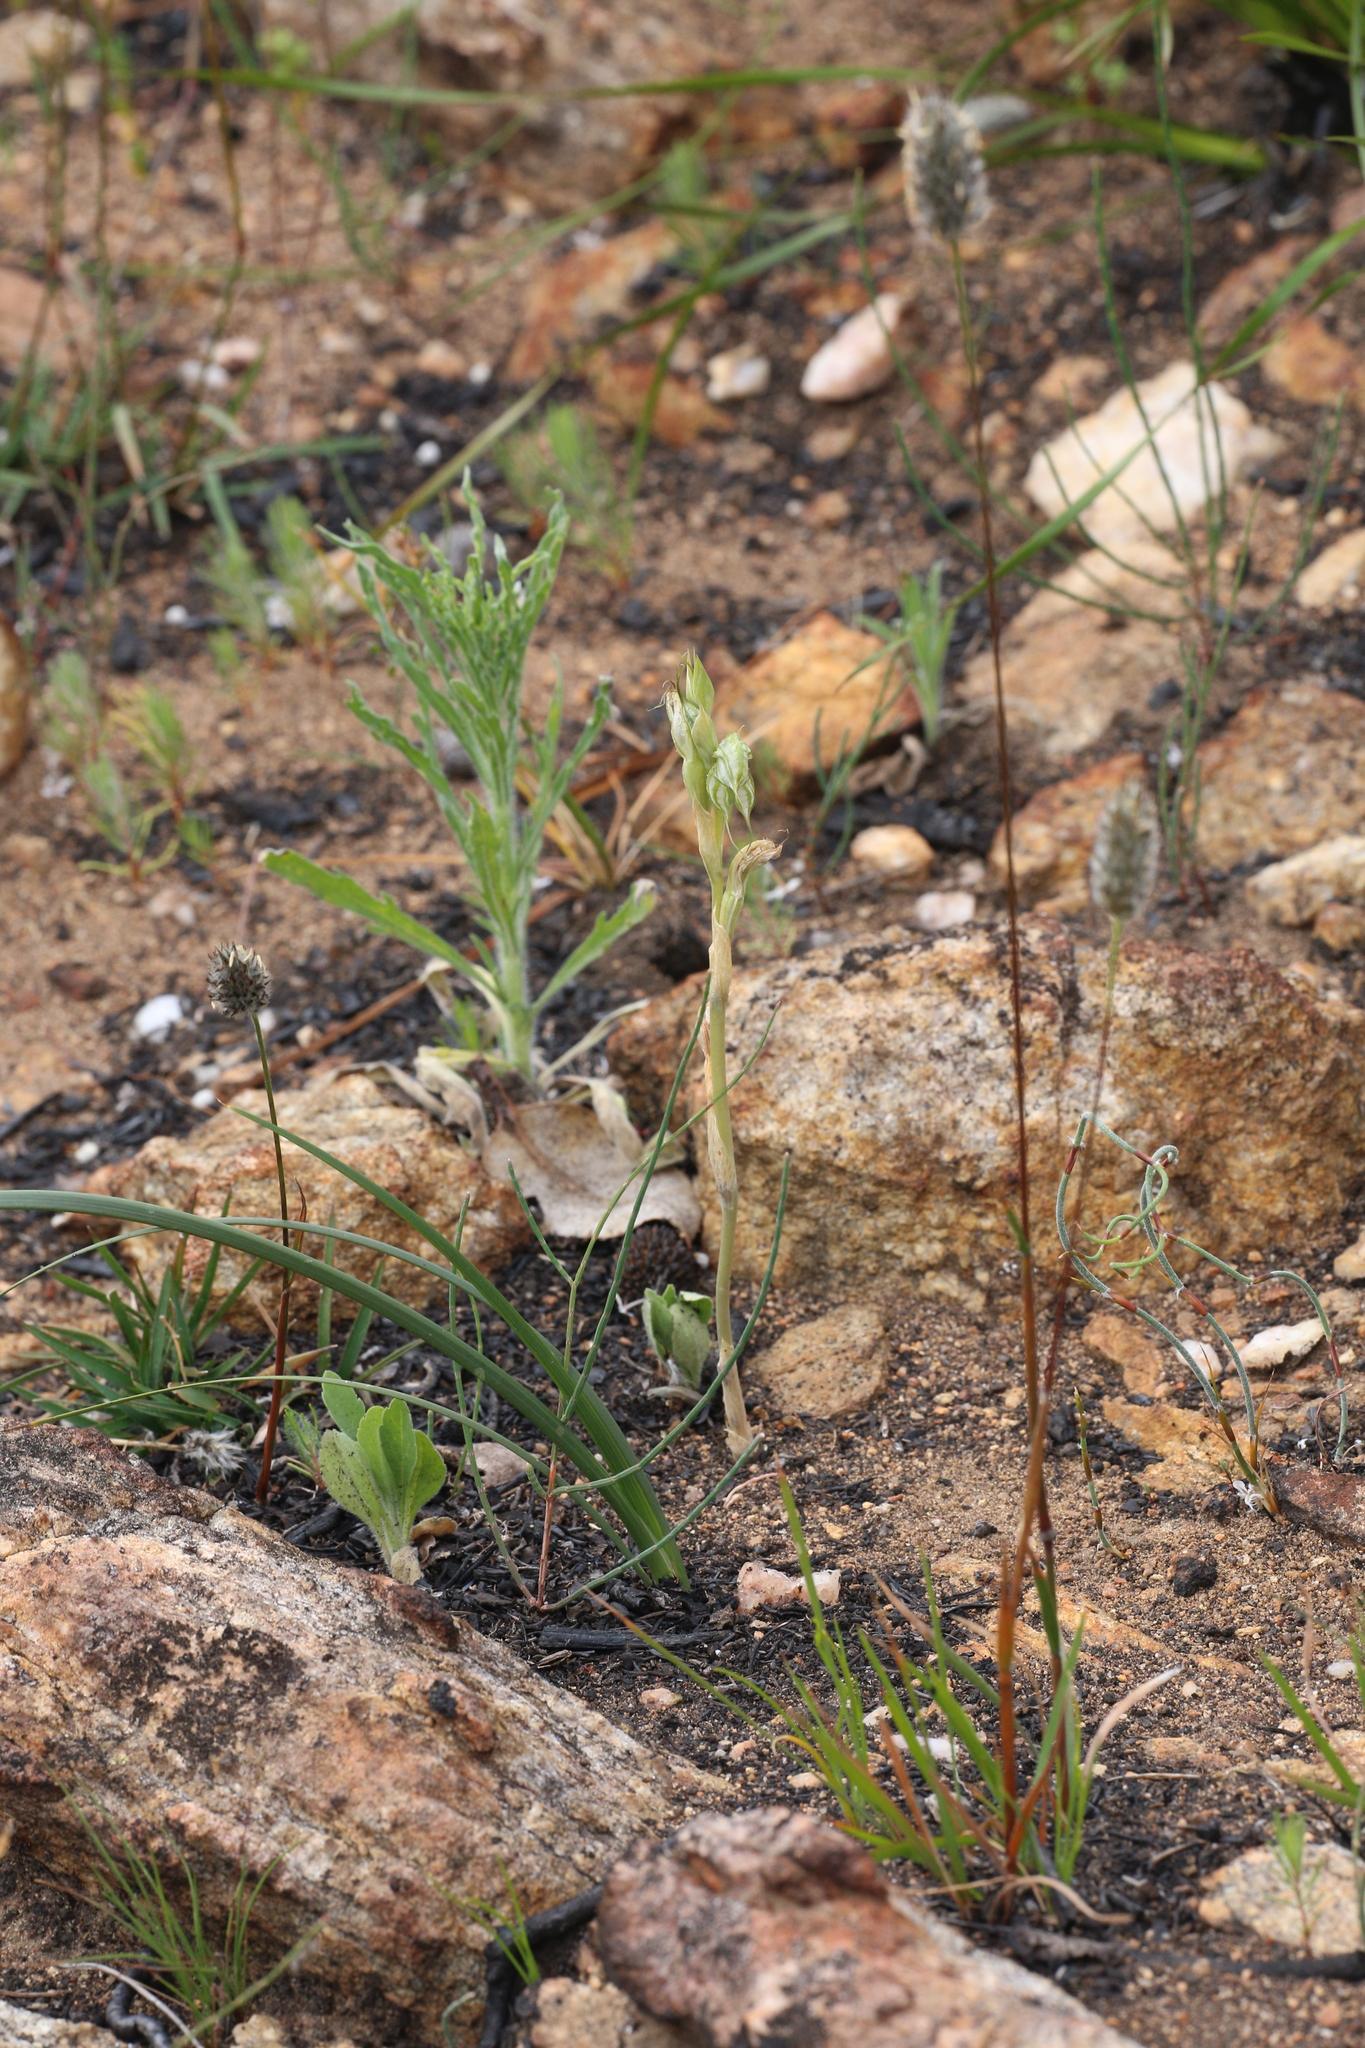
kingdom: Plantae
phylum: Tracheophyta
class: Liliopsida
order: Asparagales
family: Orchidaceae
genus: Pterostylis
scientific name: Pterostylis leptochila
